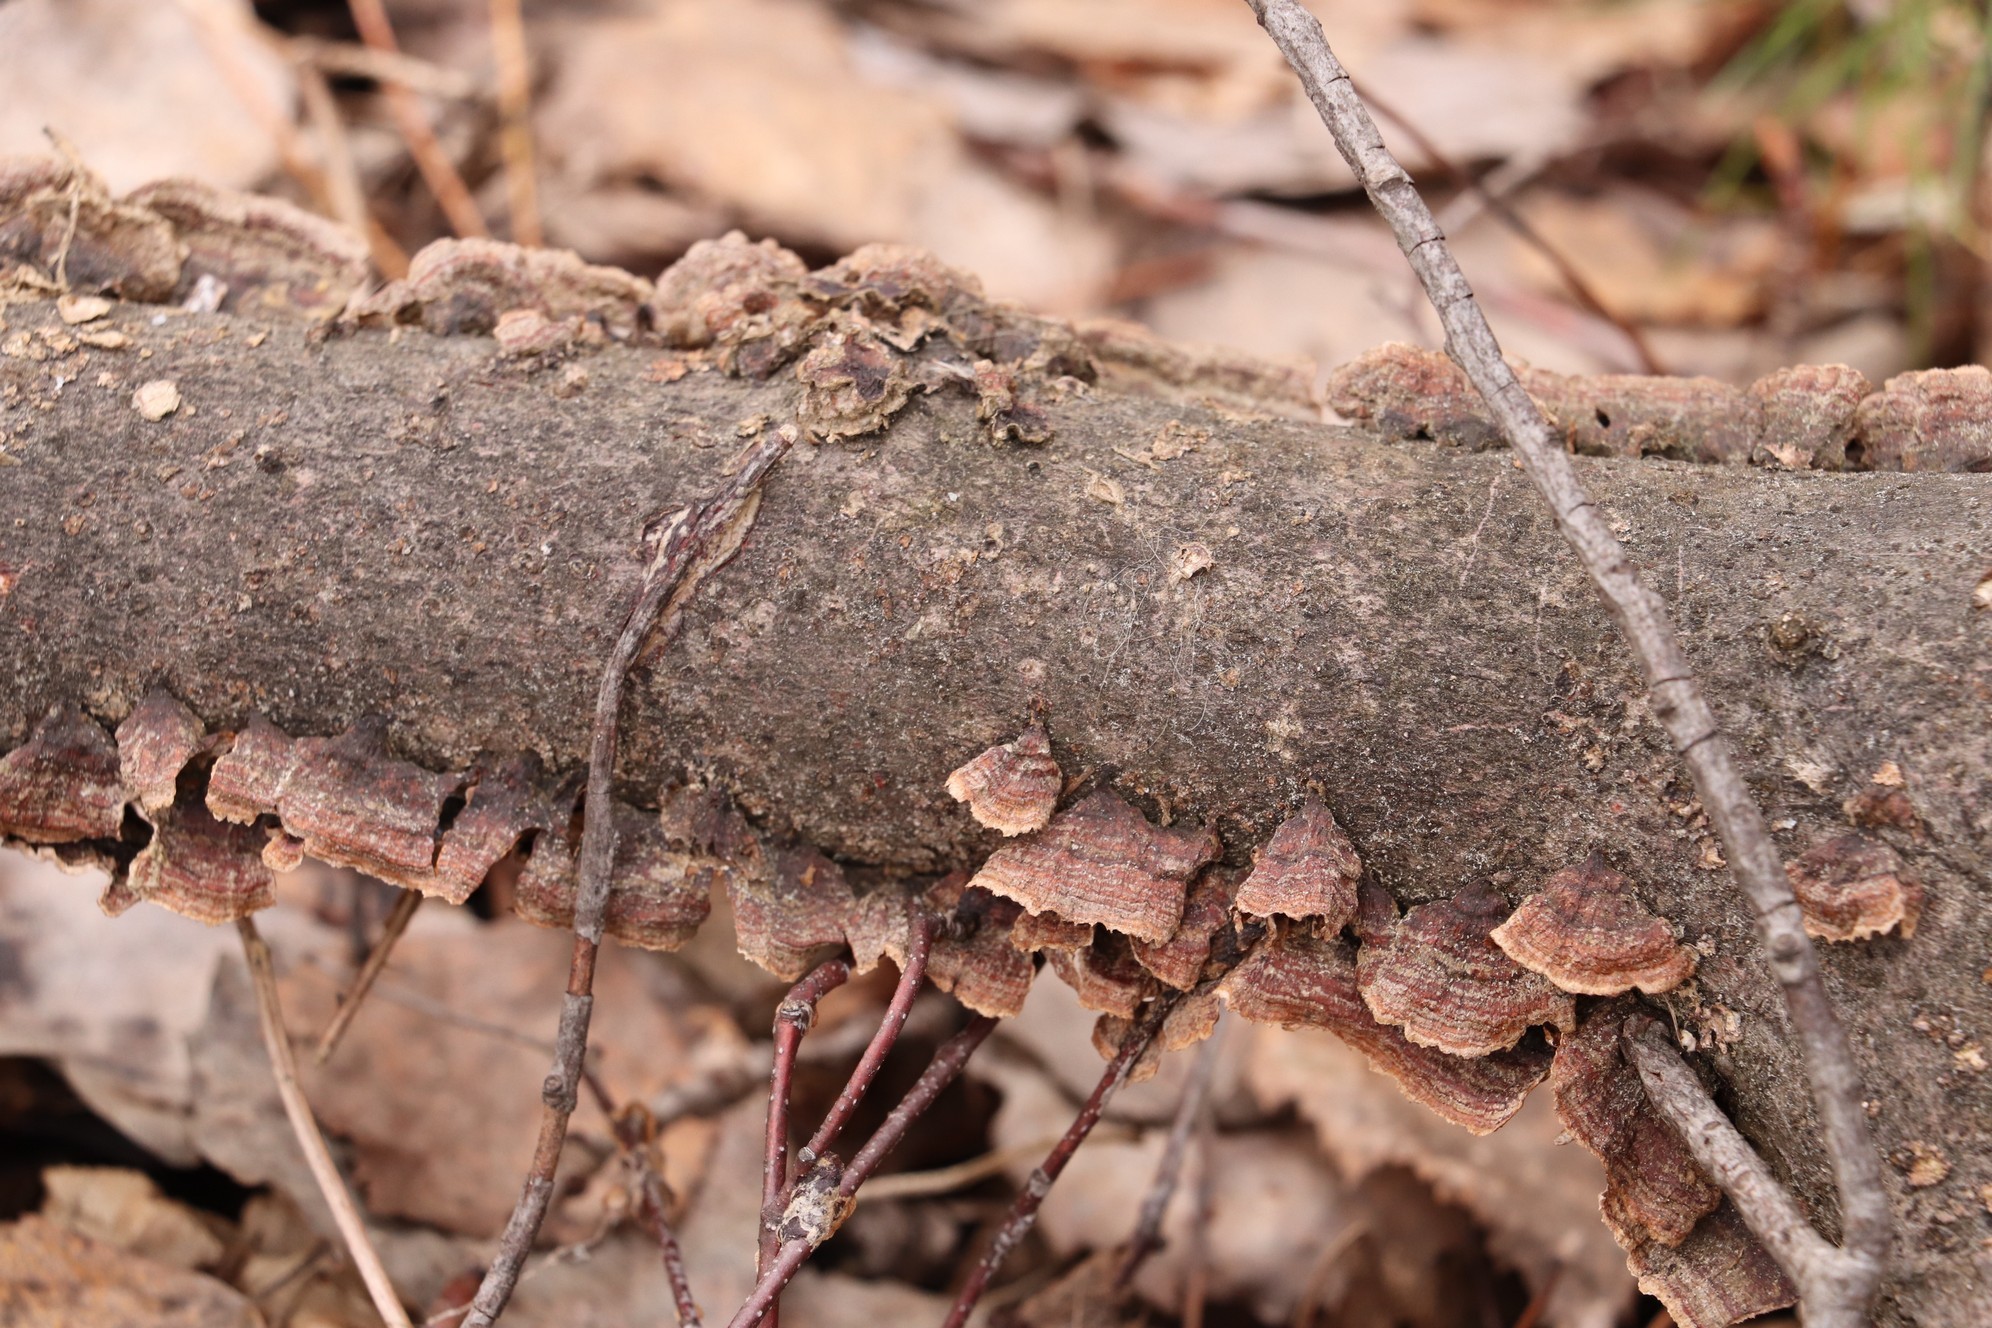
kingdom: Fungi
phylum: Basidiomycota
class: Agaricomycetes
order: Hymenochaetales
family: Hymenochaetaceae
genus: Hydnoporia
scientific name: Hydnoporia tabacina
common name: Willow glue
